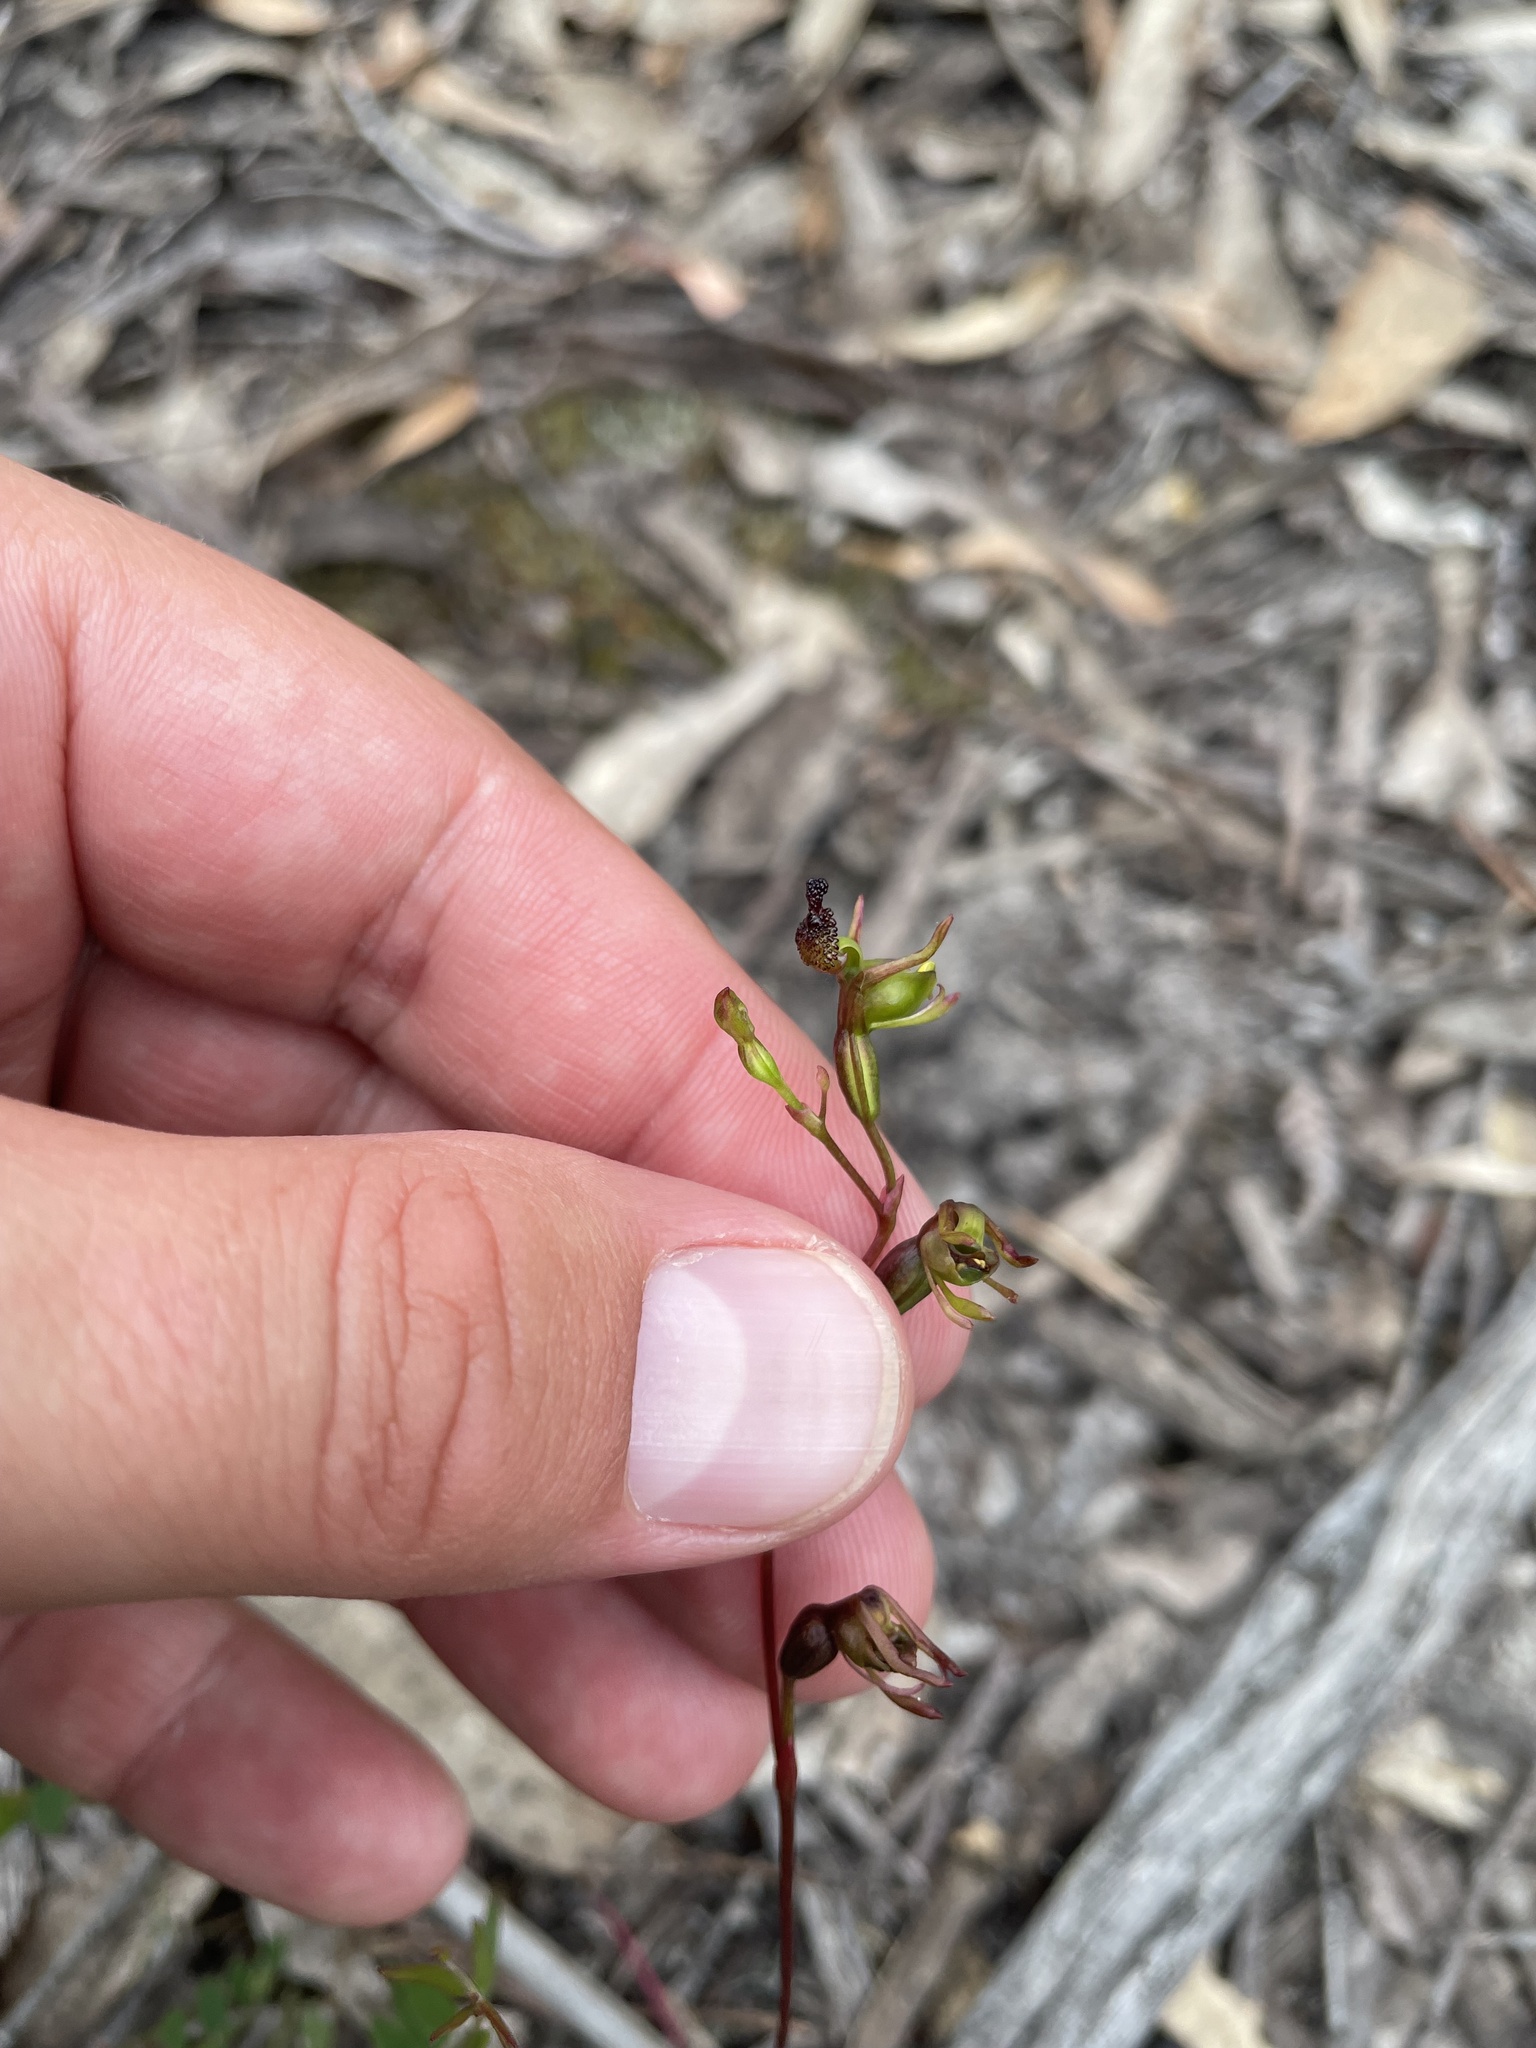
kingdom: Plantae
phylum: Tracheophyta
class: Liliopsida
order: Asparagales
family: Orchidaceae
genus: Caleana
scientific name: Caleana minor
